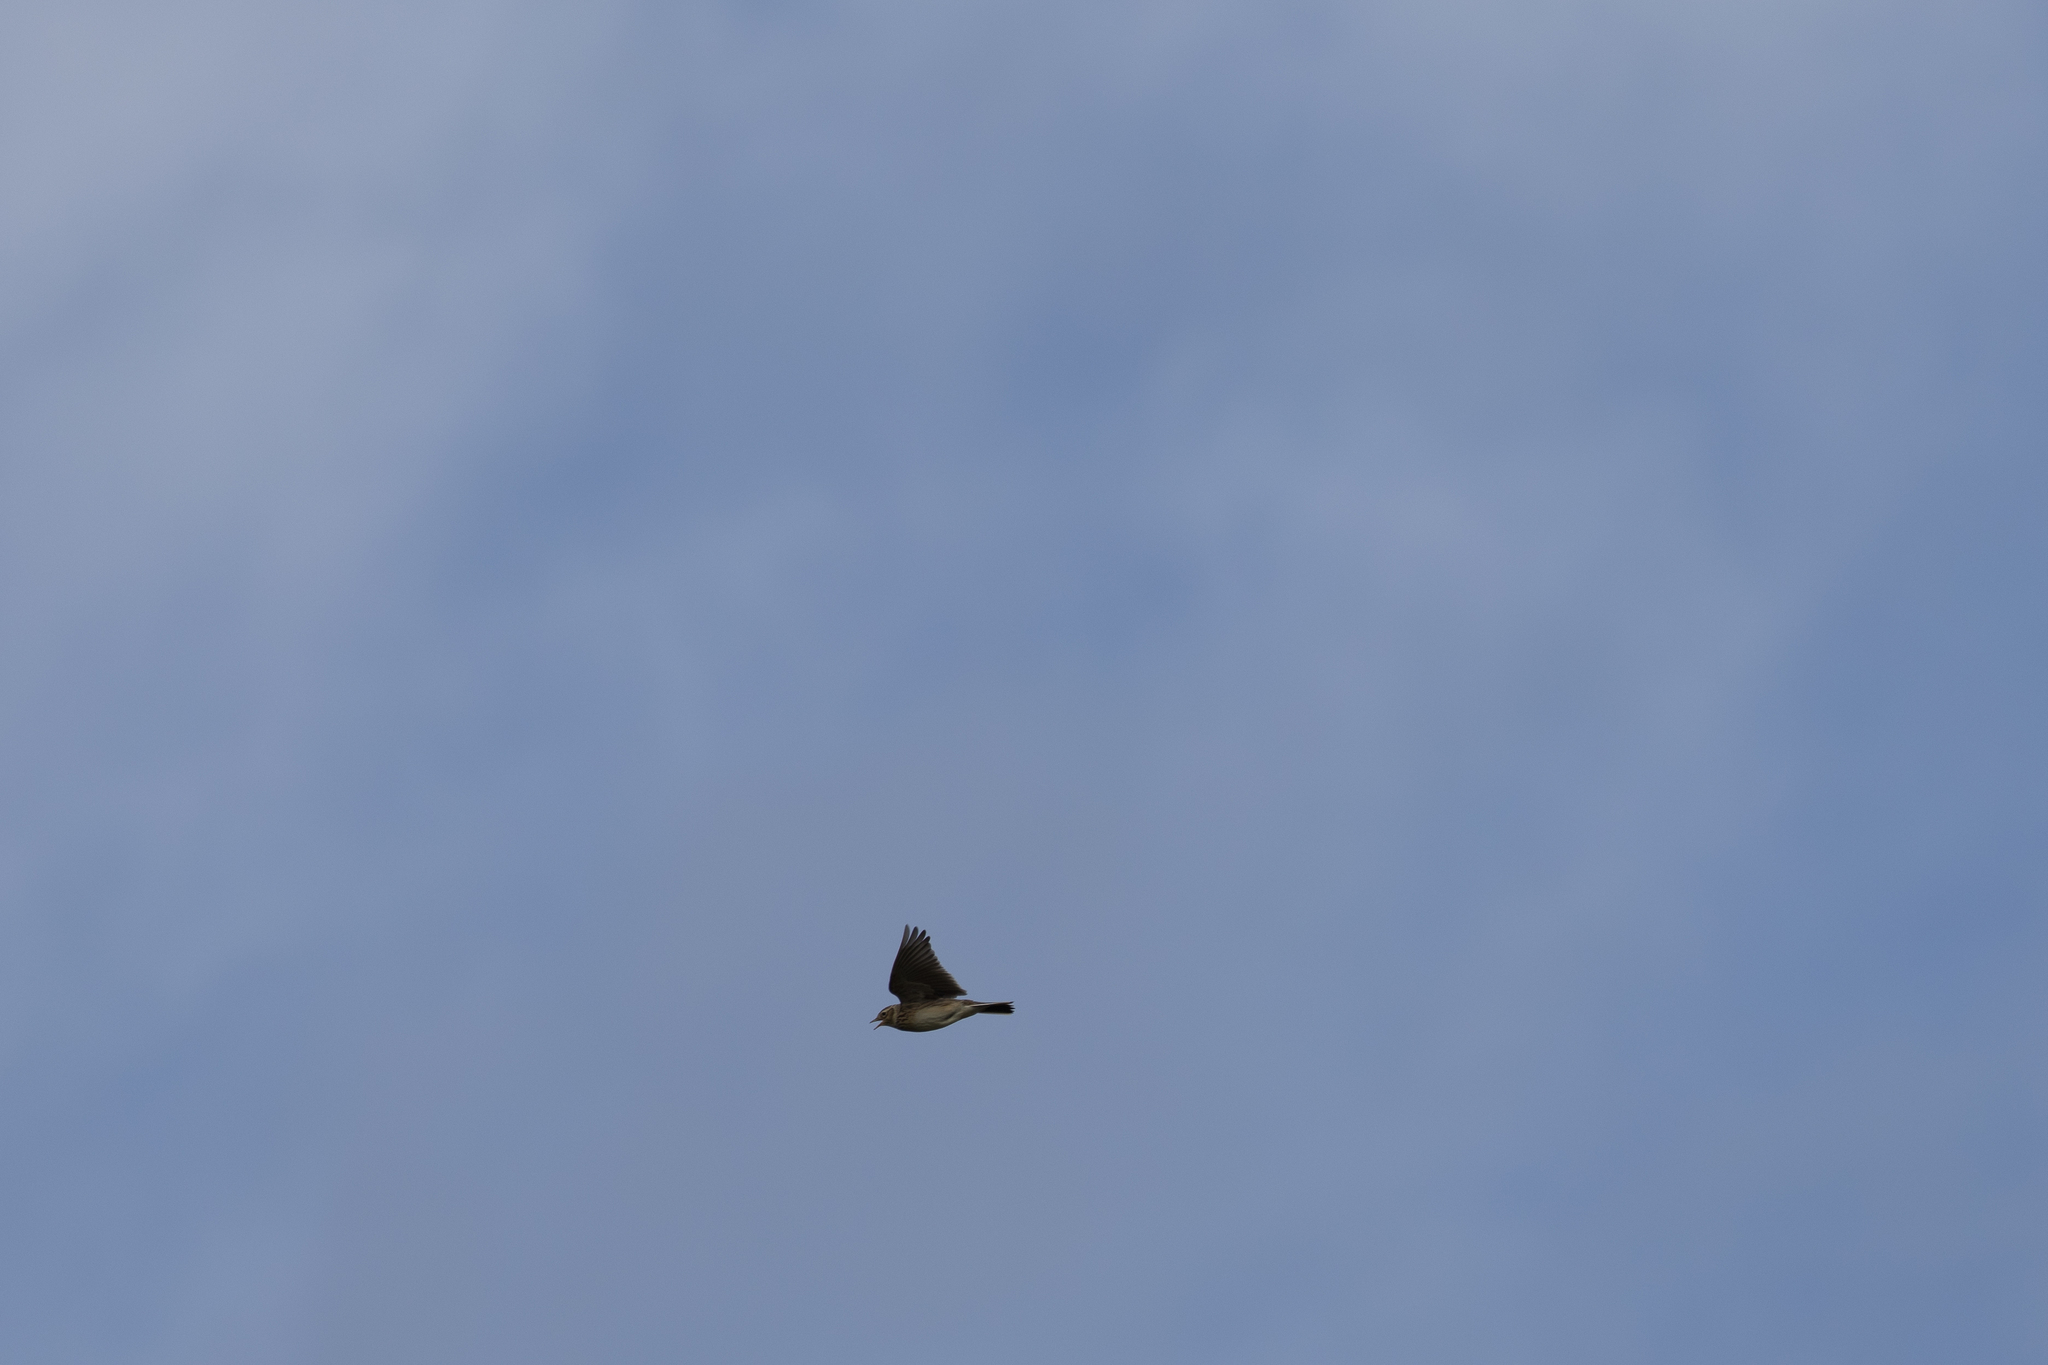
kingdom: Animalia
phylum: Chordata
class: Aves
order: Passeriformes
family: Alaudidae
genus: Alauda
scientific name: Alauda arvensis
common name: Eurasian skylark
